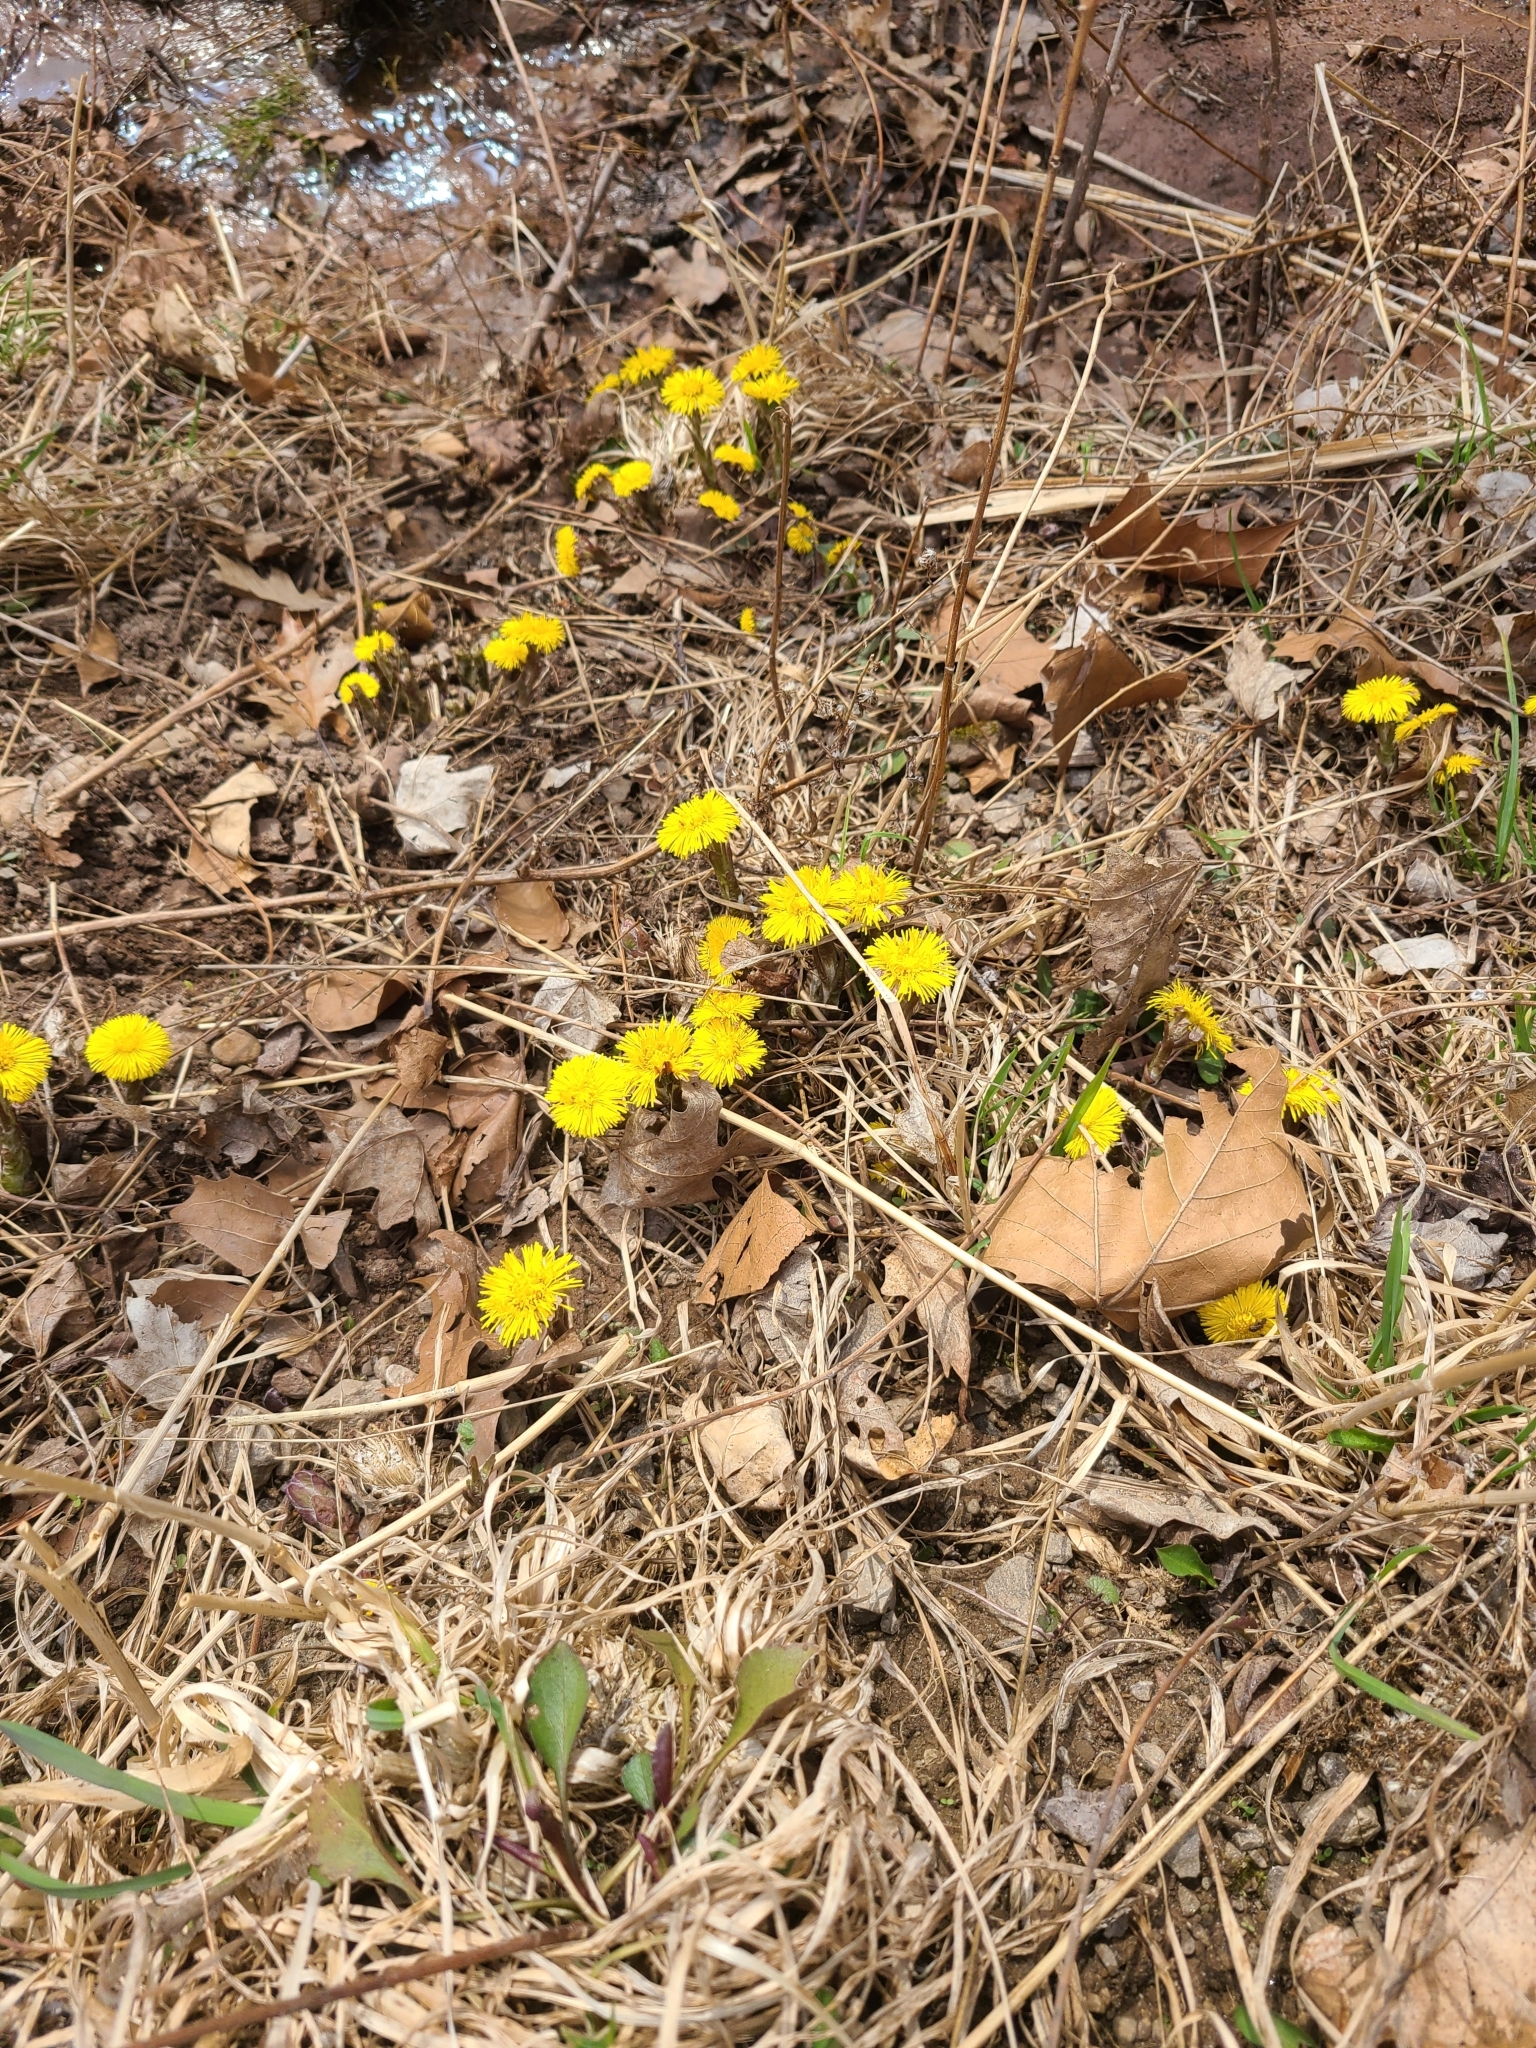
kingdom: Plantae
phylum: Tracheophyta
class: Magnoliopsida
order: Asterales
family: Asteraceae
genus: Tussilago
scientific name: Tussilago farfara
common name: Coltsfoot
